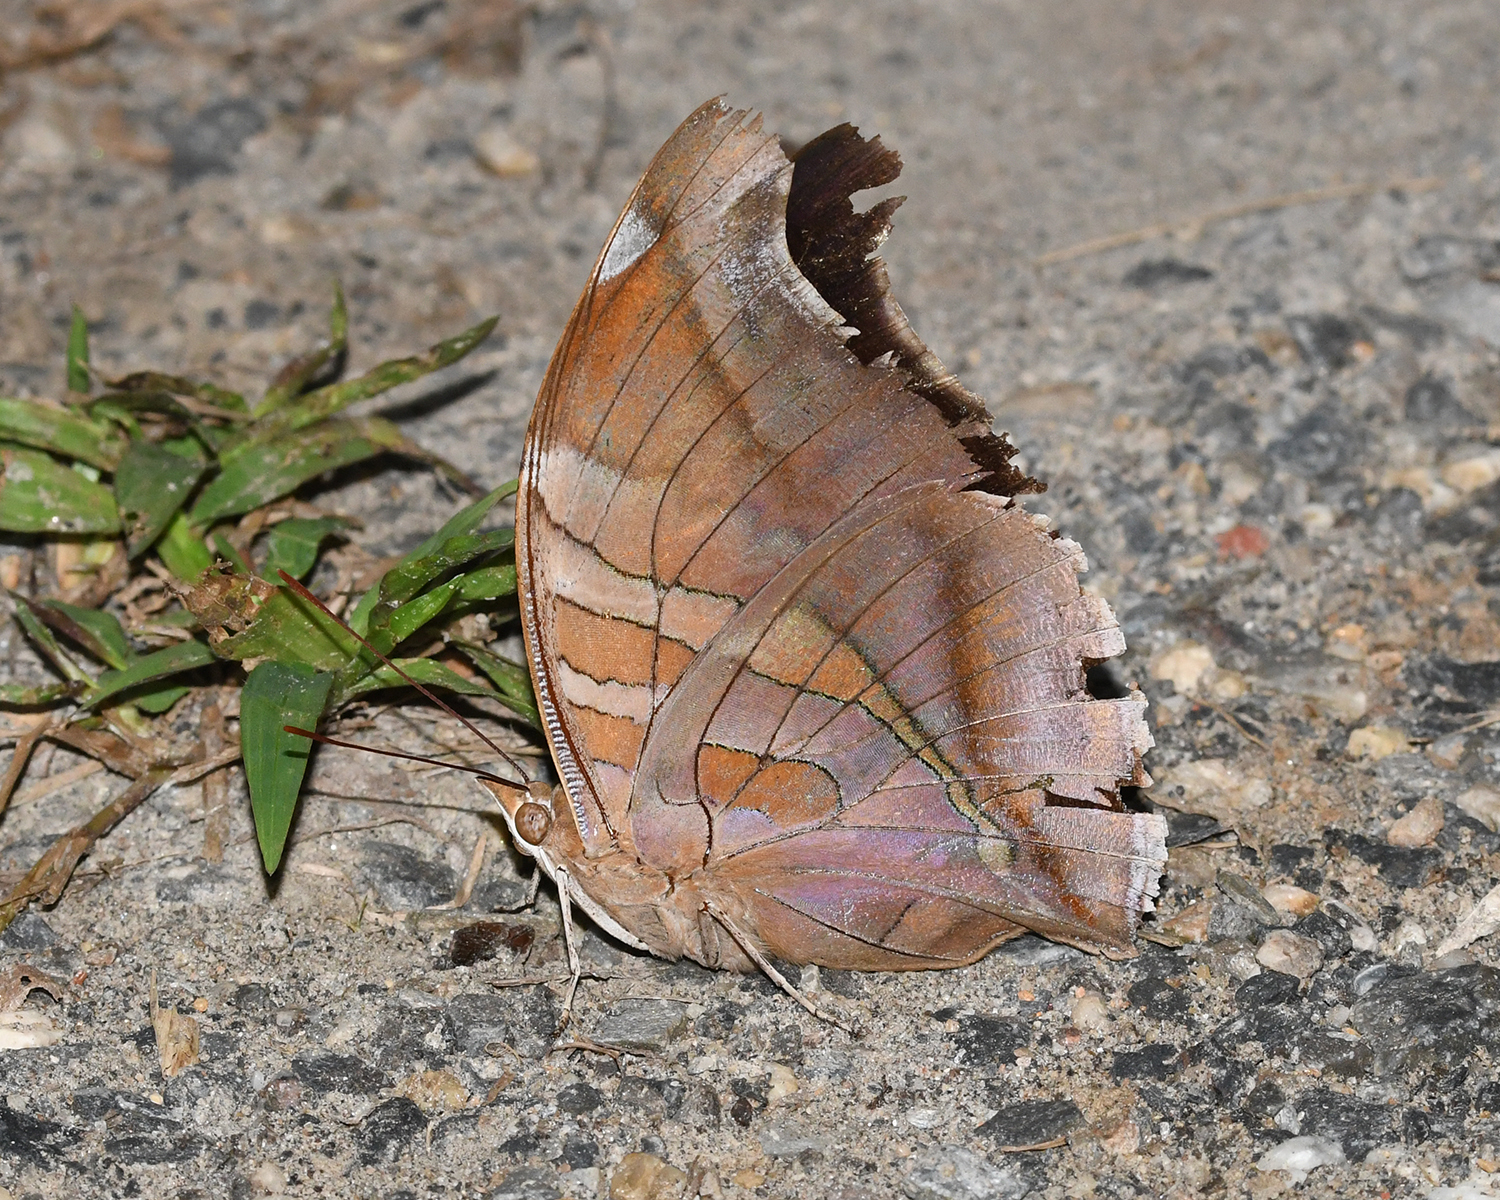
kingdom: Animalia
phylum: Arthropoda
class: Insecta
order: Lepidoptera
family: Nymphalidae
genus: Historis
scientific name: Historis odius
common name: Orion cecropian
